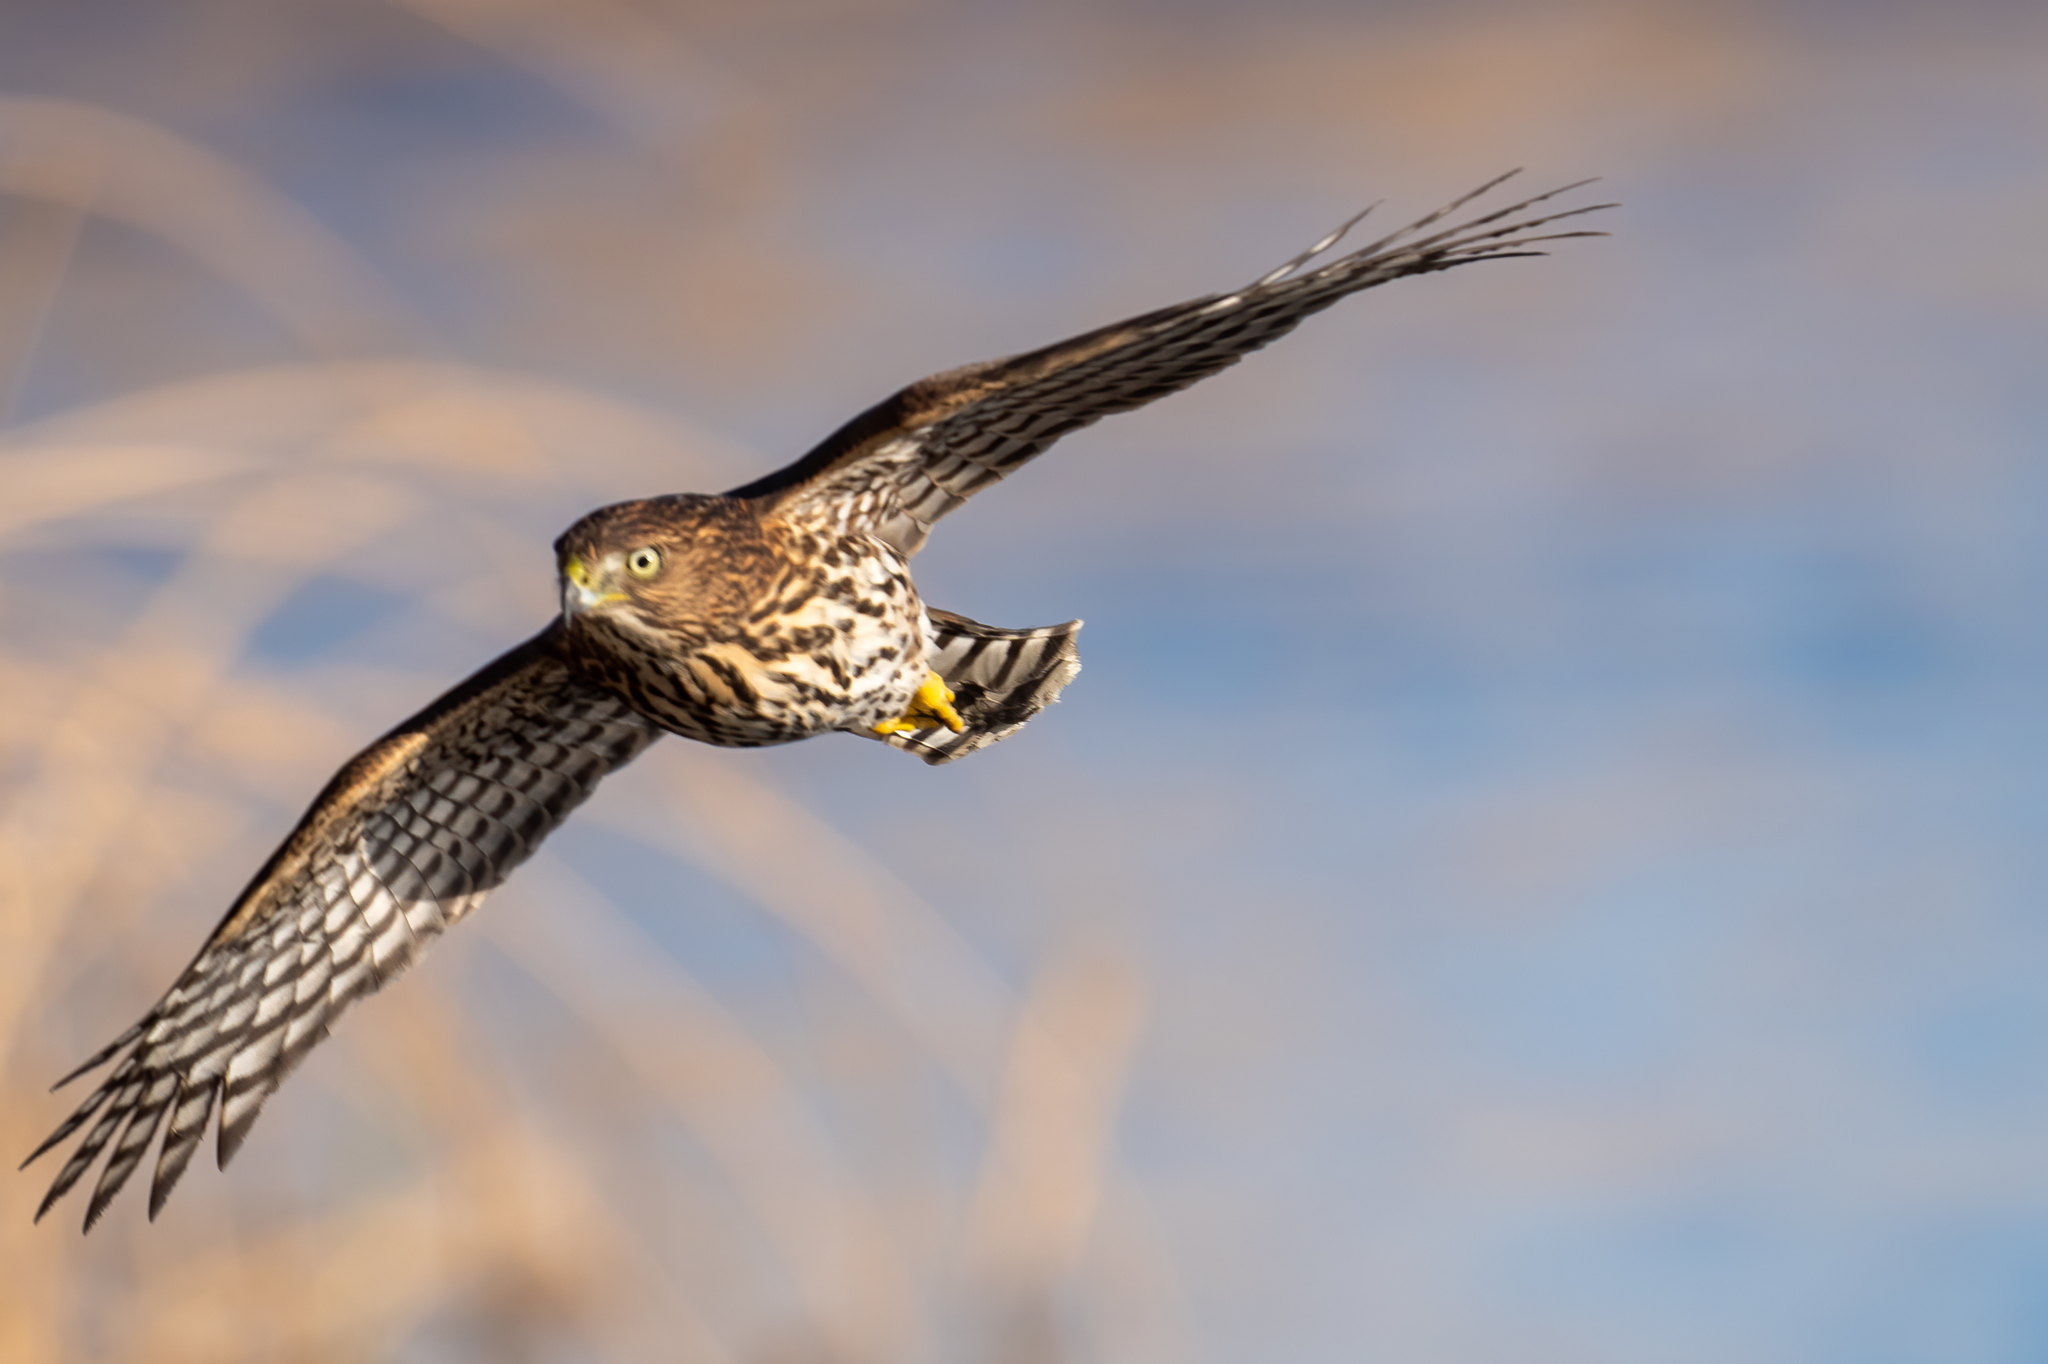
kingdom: Animalia
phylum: Chordata
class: Aves
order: Accipitriformes
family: Accipitridae
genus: Accipiter
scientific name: Accipiter cooperii
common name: Cooper's hawk
